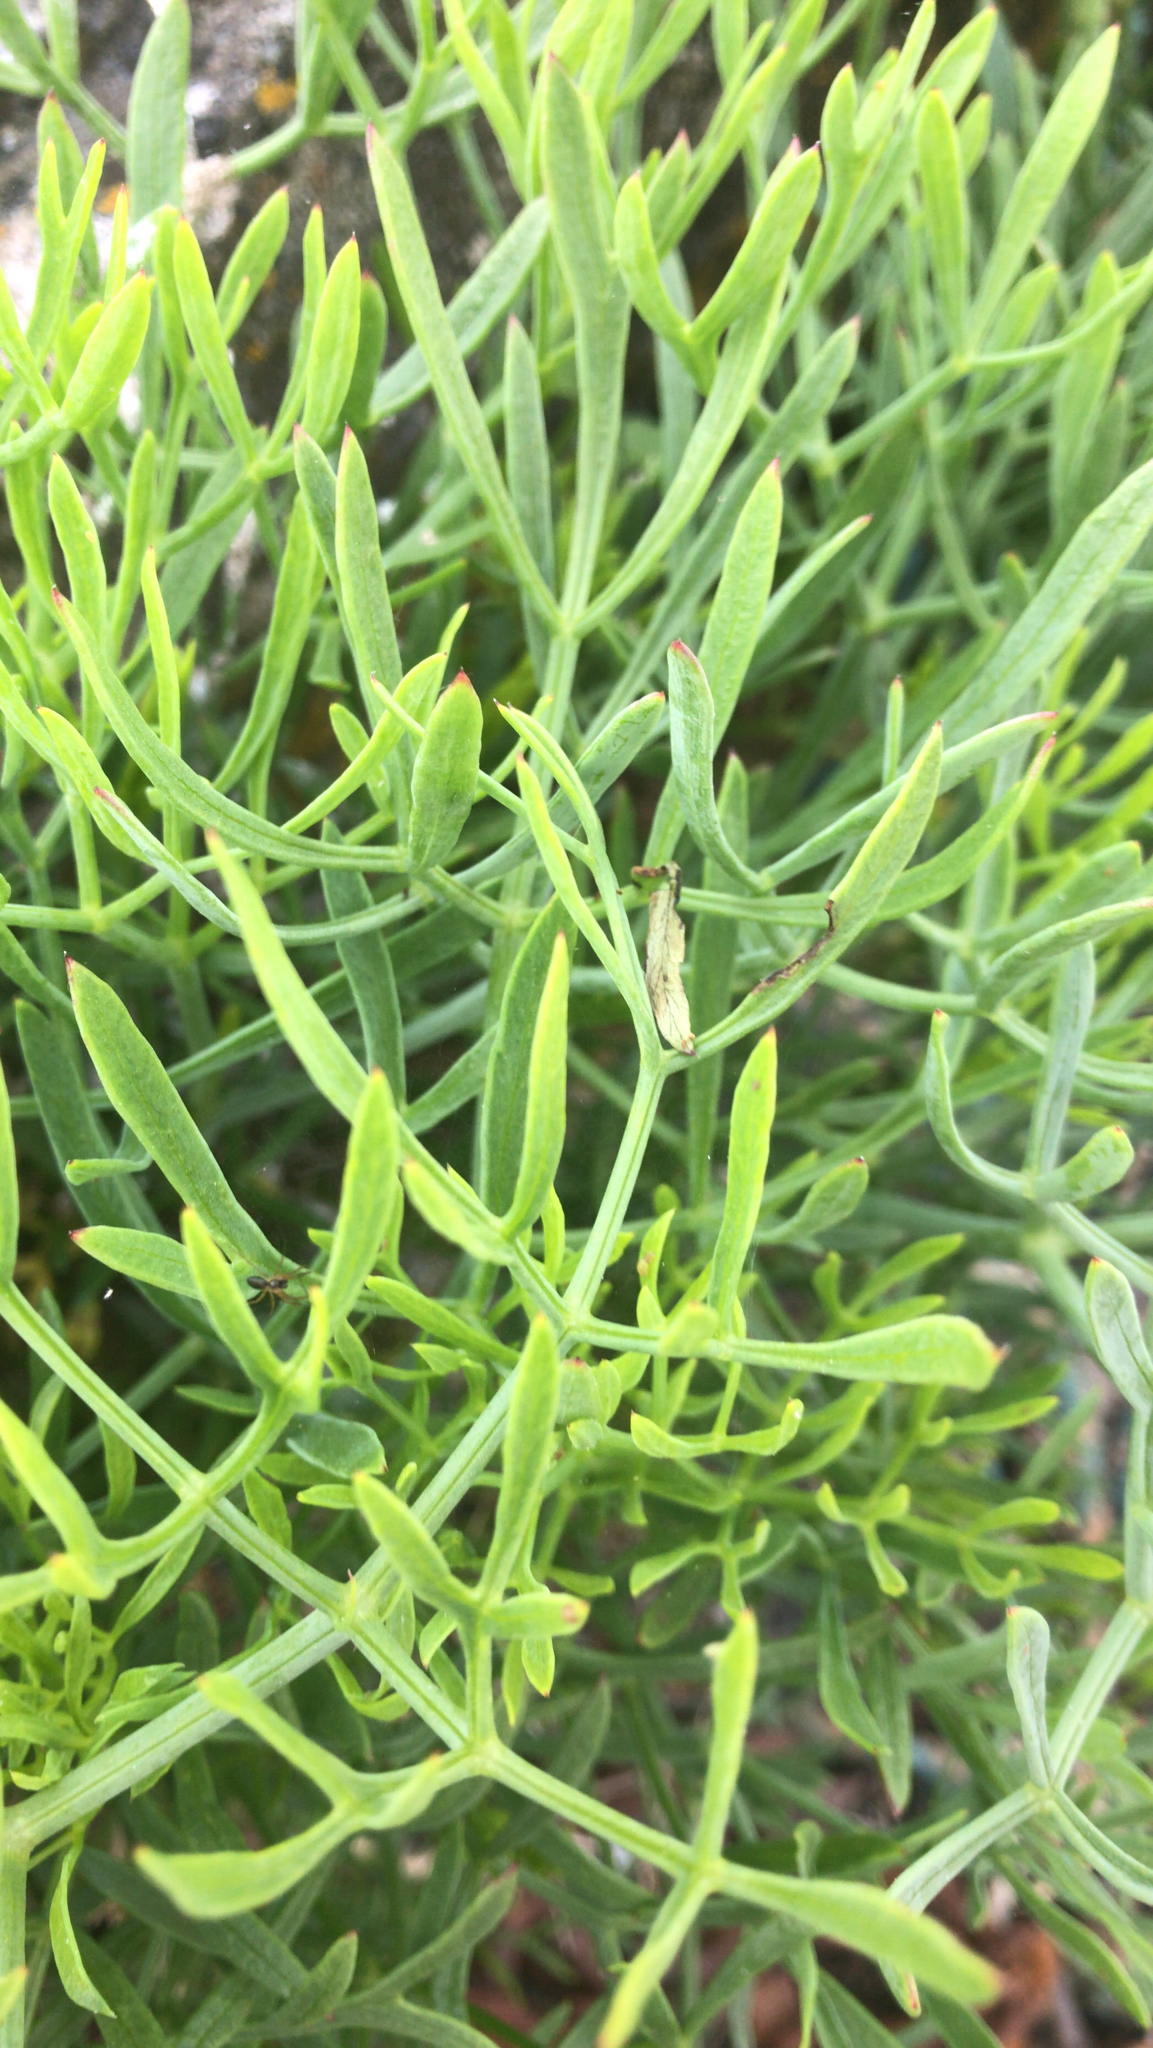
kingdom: Plantae
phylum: Tracheophyta
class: Magnoliopsida
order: Apiales
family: Apiaceae
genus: Crithmum
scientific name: Crithmum maritimum
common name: Rock samphire
